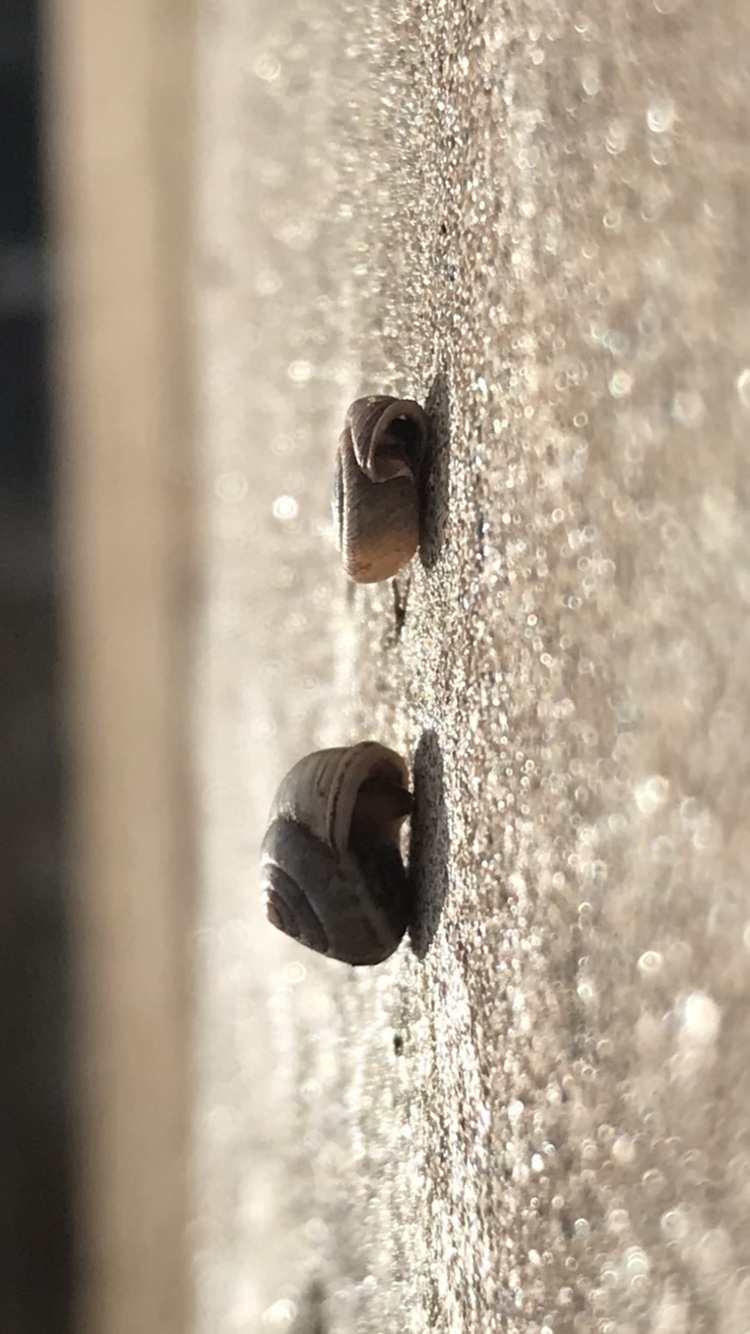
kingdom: Animalia
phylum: Mollusca
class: Gastropoda
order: Cycloneritida
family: Helicinidae
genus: Helicina
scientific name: Helicina orbiculata
